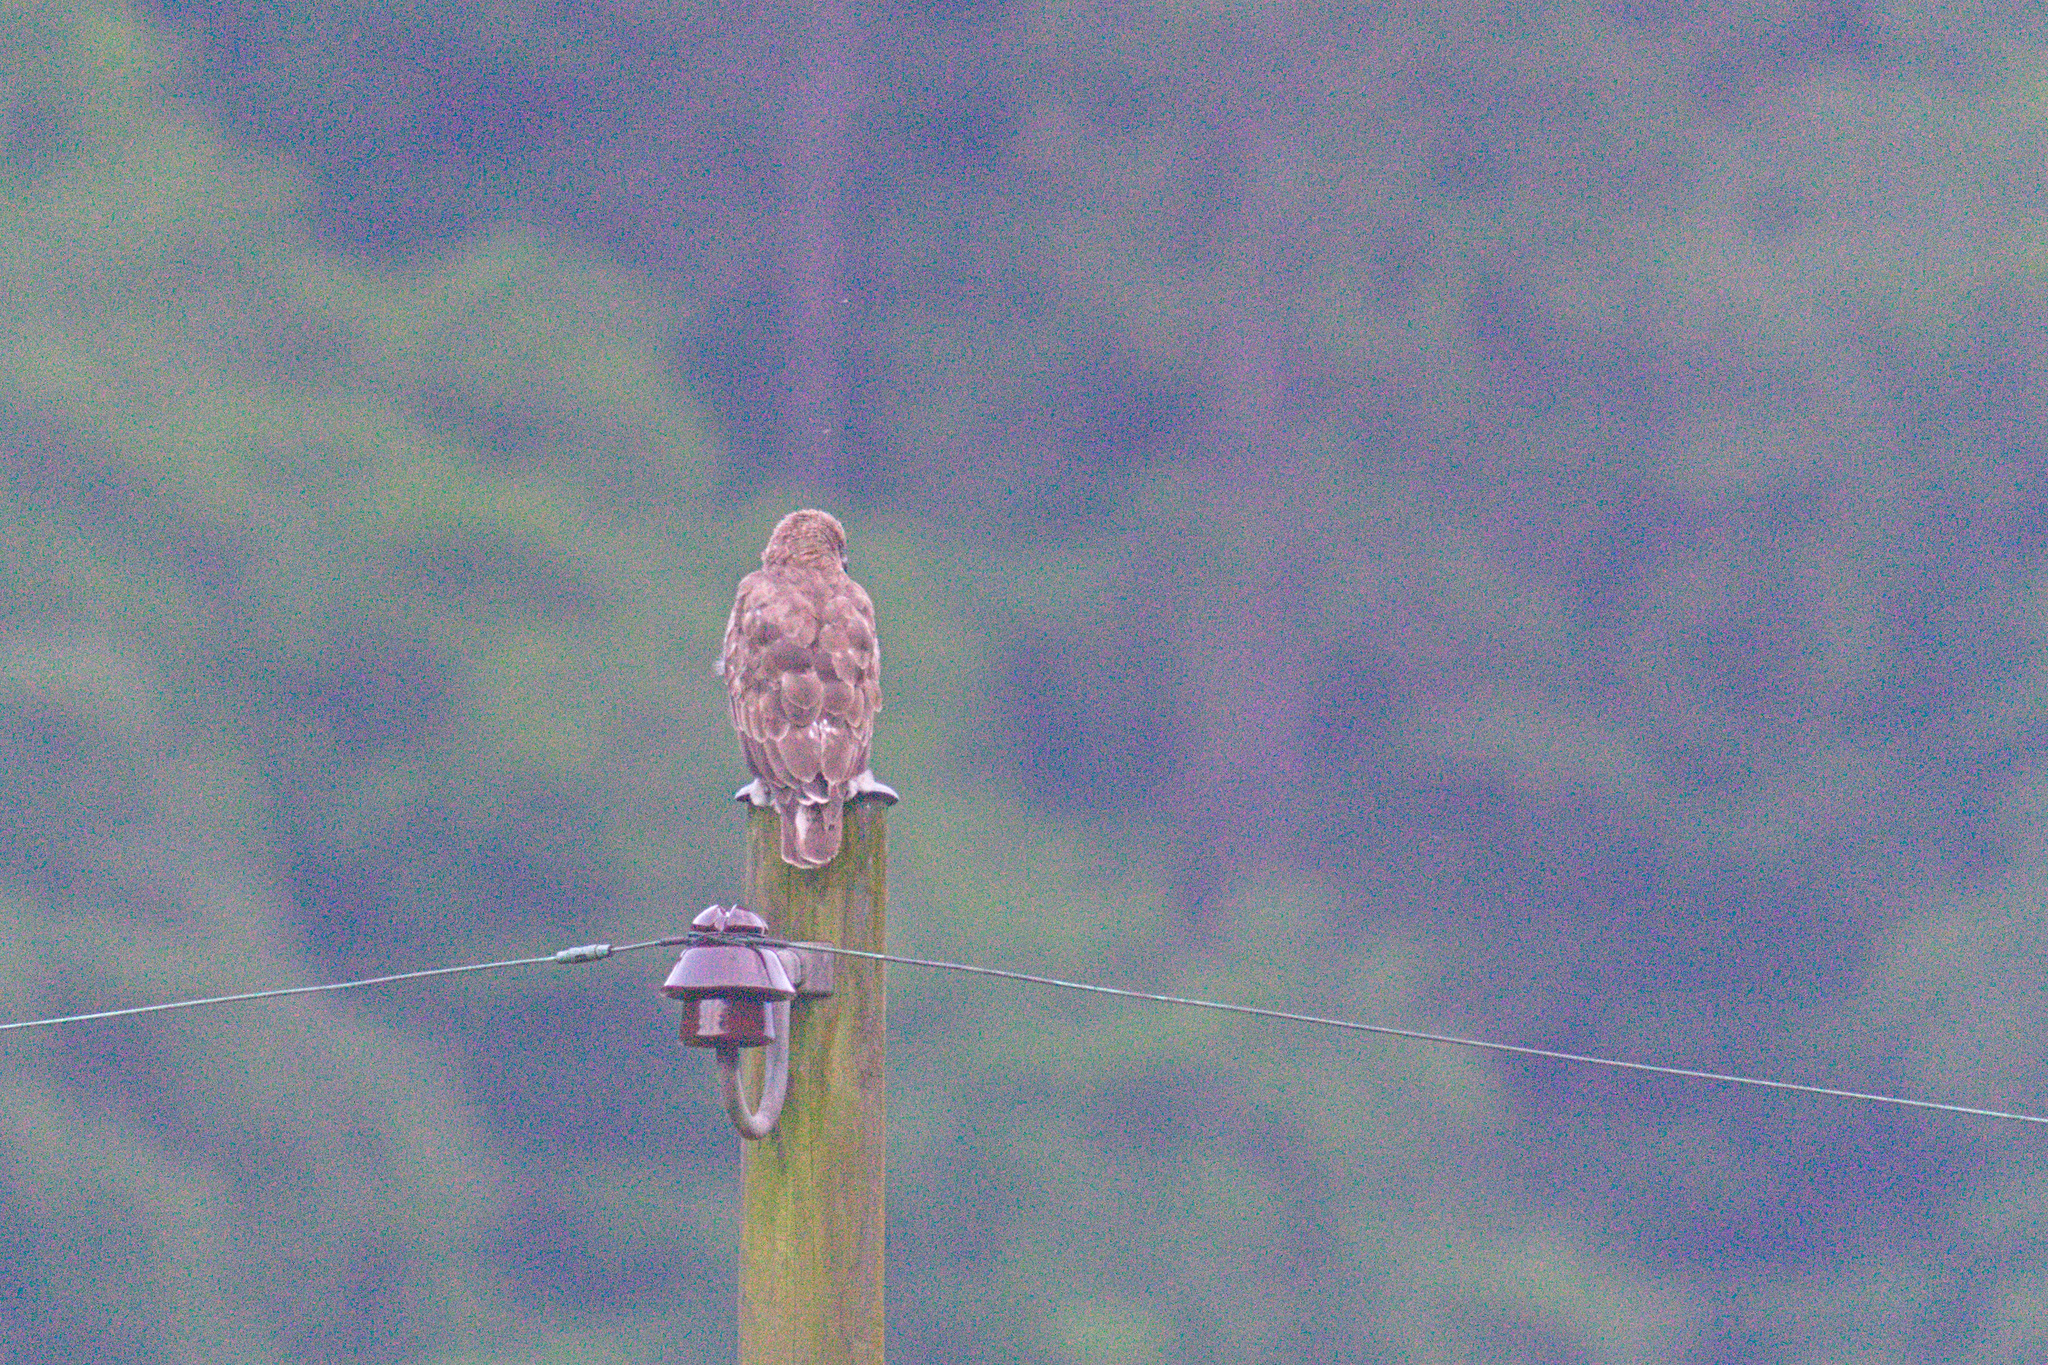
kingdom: Animalia
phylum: Chordata
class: Aves
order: Accipitriformes
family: Accipitridae
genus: Buteo
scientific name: Buteo buteo
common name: Common buzzard
